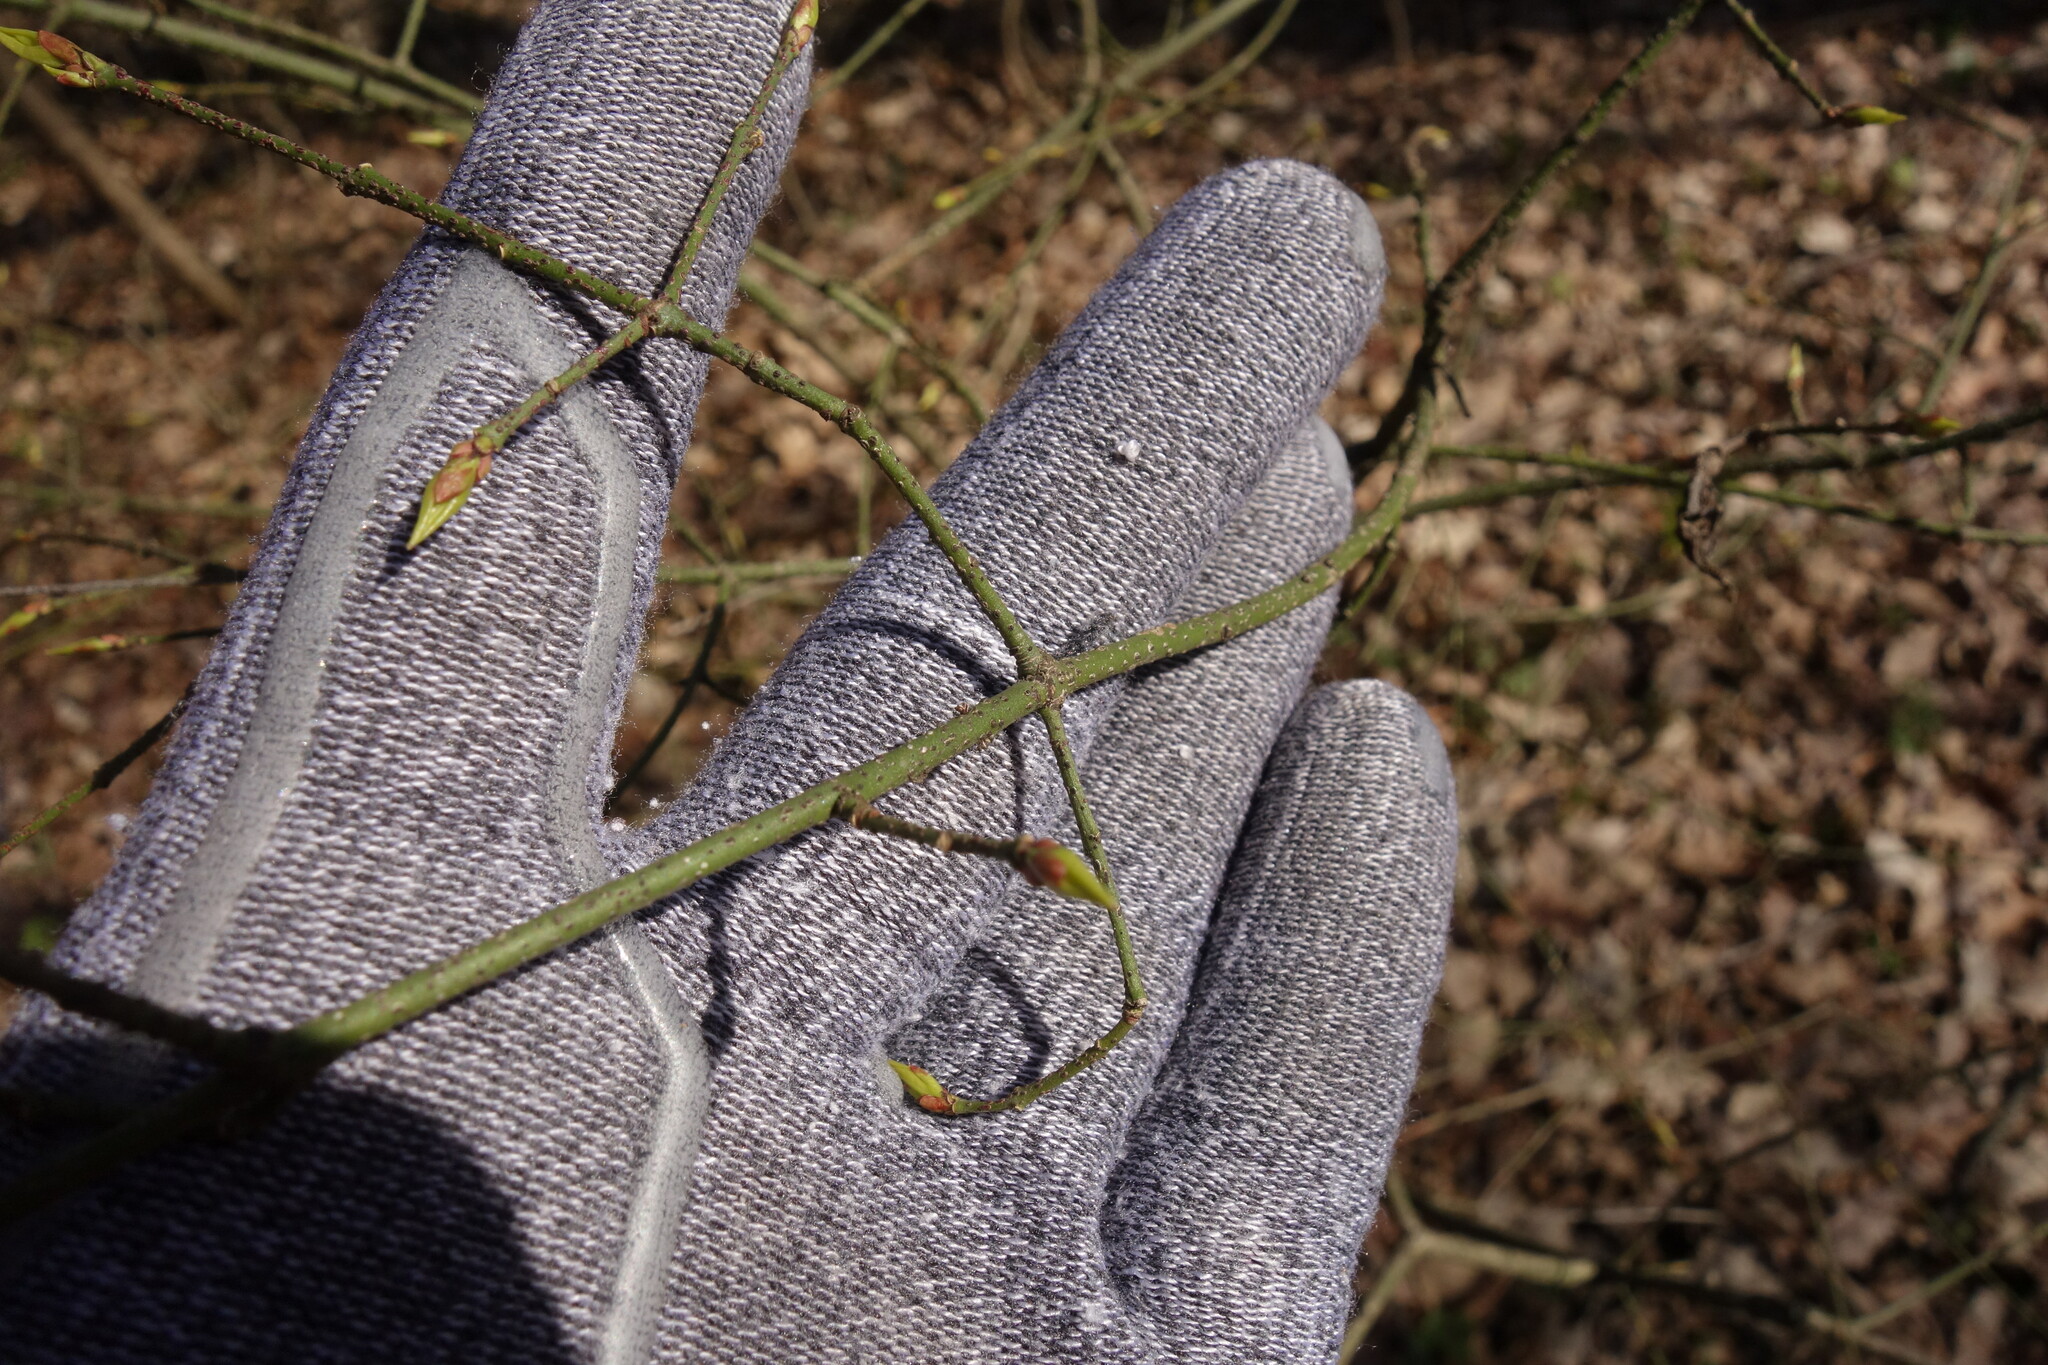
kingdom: Plantae
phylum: Tracheophyta
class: Magnoliopsida
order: Celastrales
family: Celastraceae
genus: Euonymus
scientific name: Euonymus verrucosus
